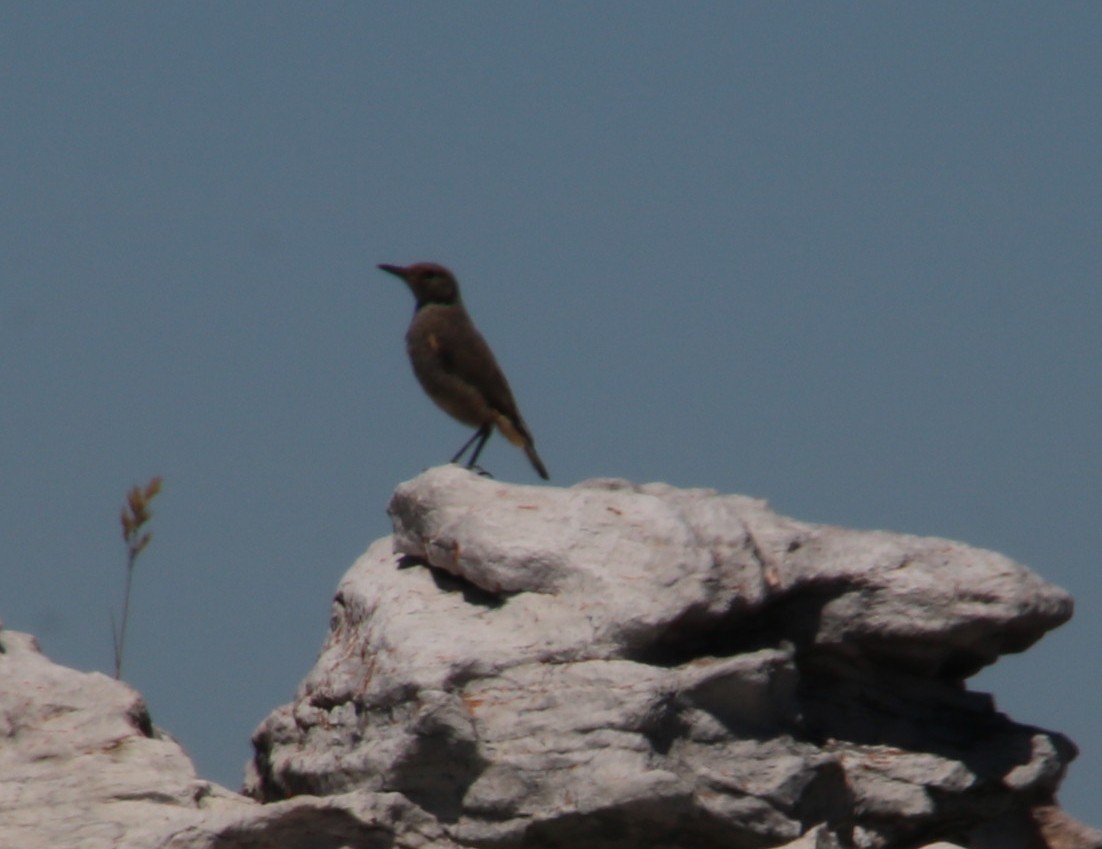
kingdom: Animalia
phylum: Chordata
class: Aves
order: Passeriformes
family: Muscicapidae
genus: Monticola
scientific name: Monticola explorator
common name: Sentinel rock thrush
